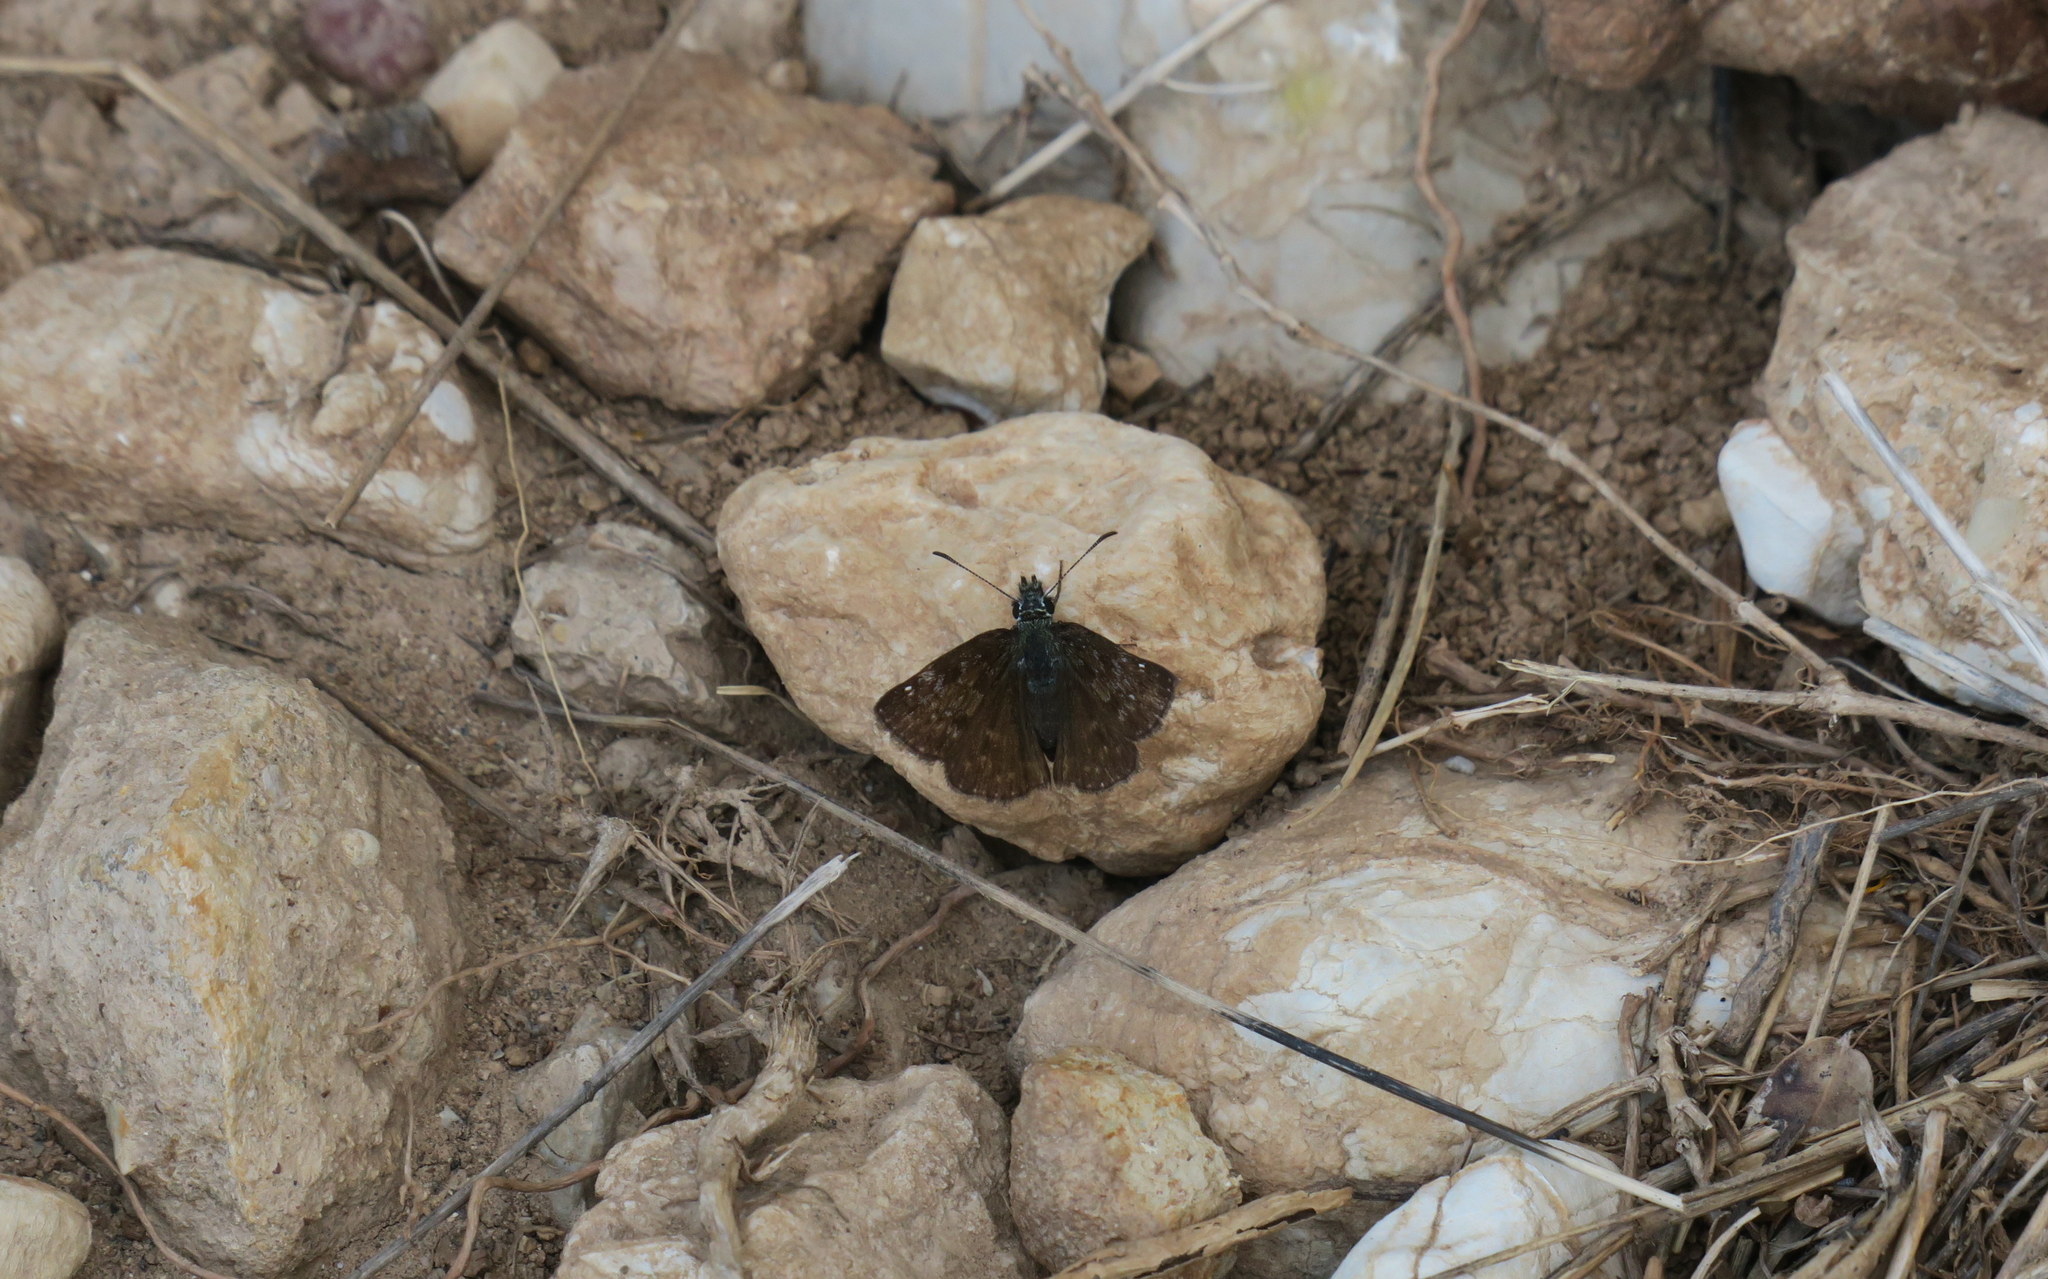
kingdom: Animalia
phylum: Arthropoda
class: Insecta
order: Lepidoptera
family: Hesperiidae
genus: Erynnis
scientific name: Erynnis tages
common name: Dingy skipper
